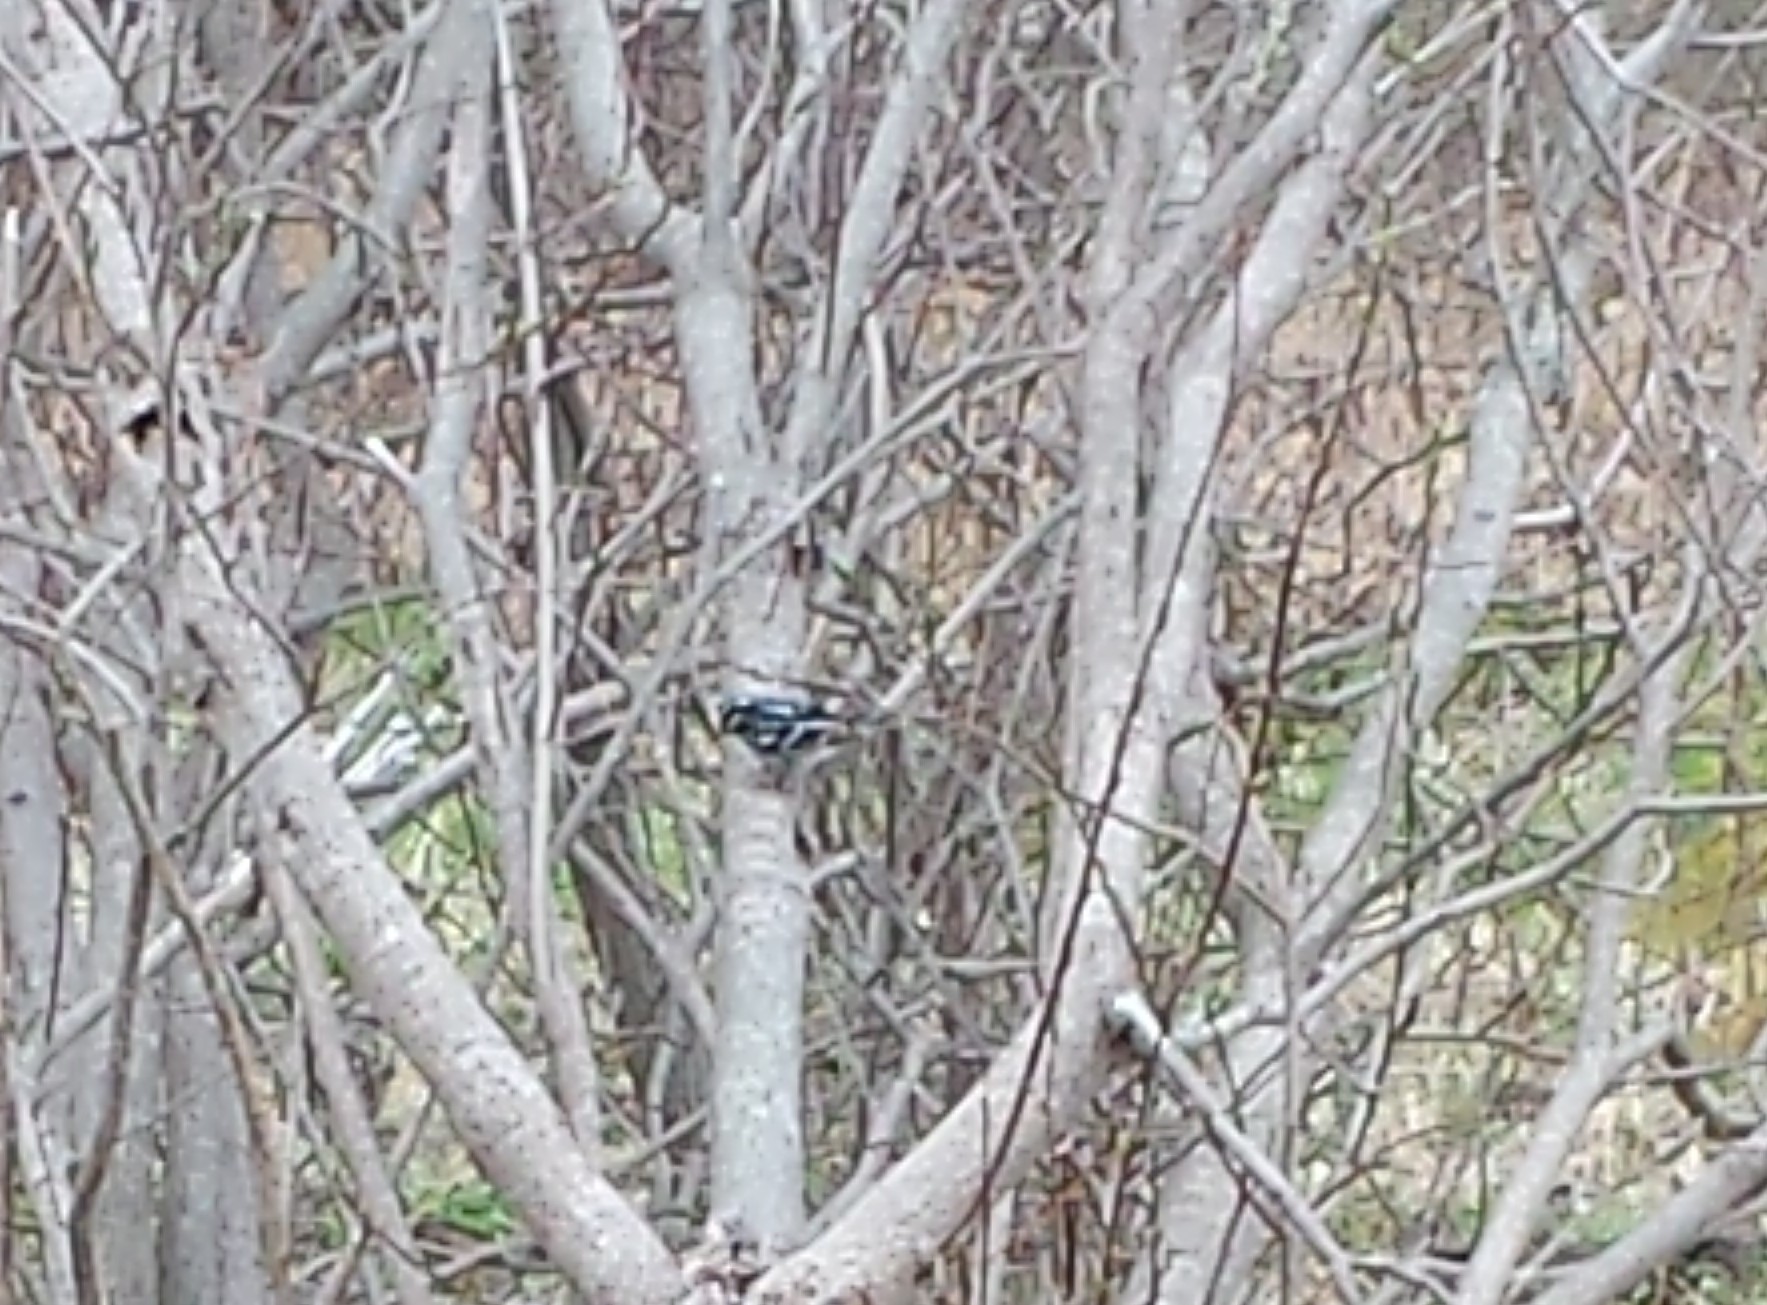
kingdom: Animalia
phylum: Chordata
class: Aves
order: Passeriformes
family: Parulidae
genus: Mniotilta
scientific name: Mniotilta varia
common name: Black-and-white warbler
